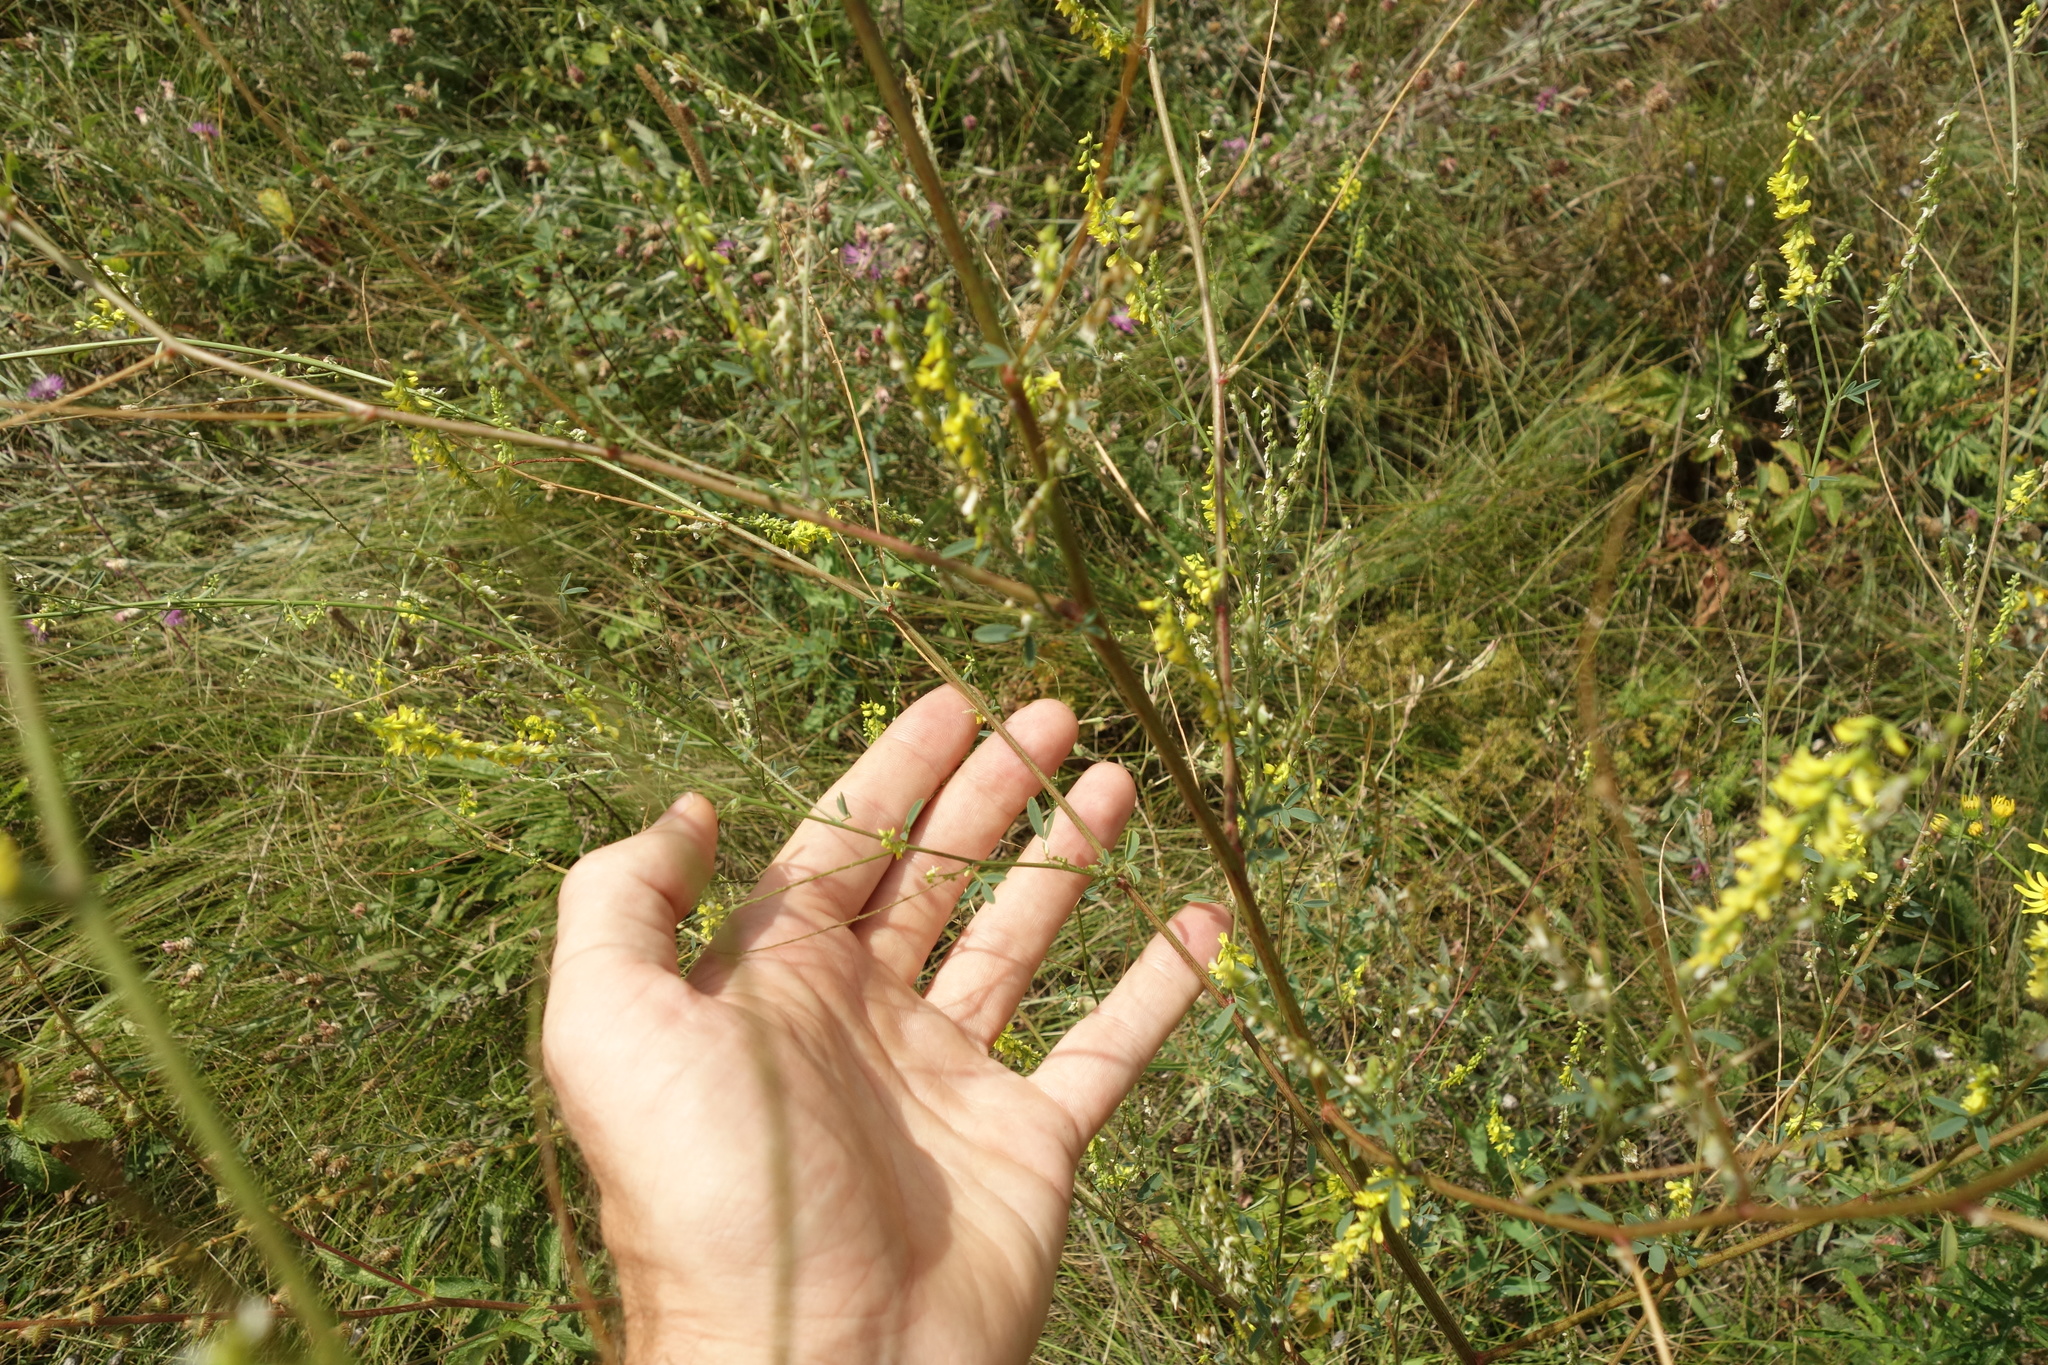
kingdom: Plantae
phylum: Tracheophyta
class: Magnoliopsida
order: Fabales
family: Fabaceae
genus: Melilotus
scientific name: Melilotus officinalis
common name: Sweetclover
